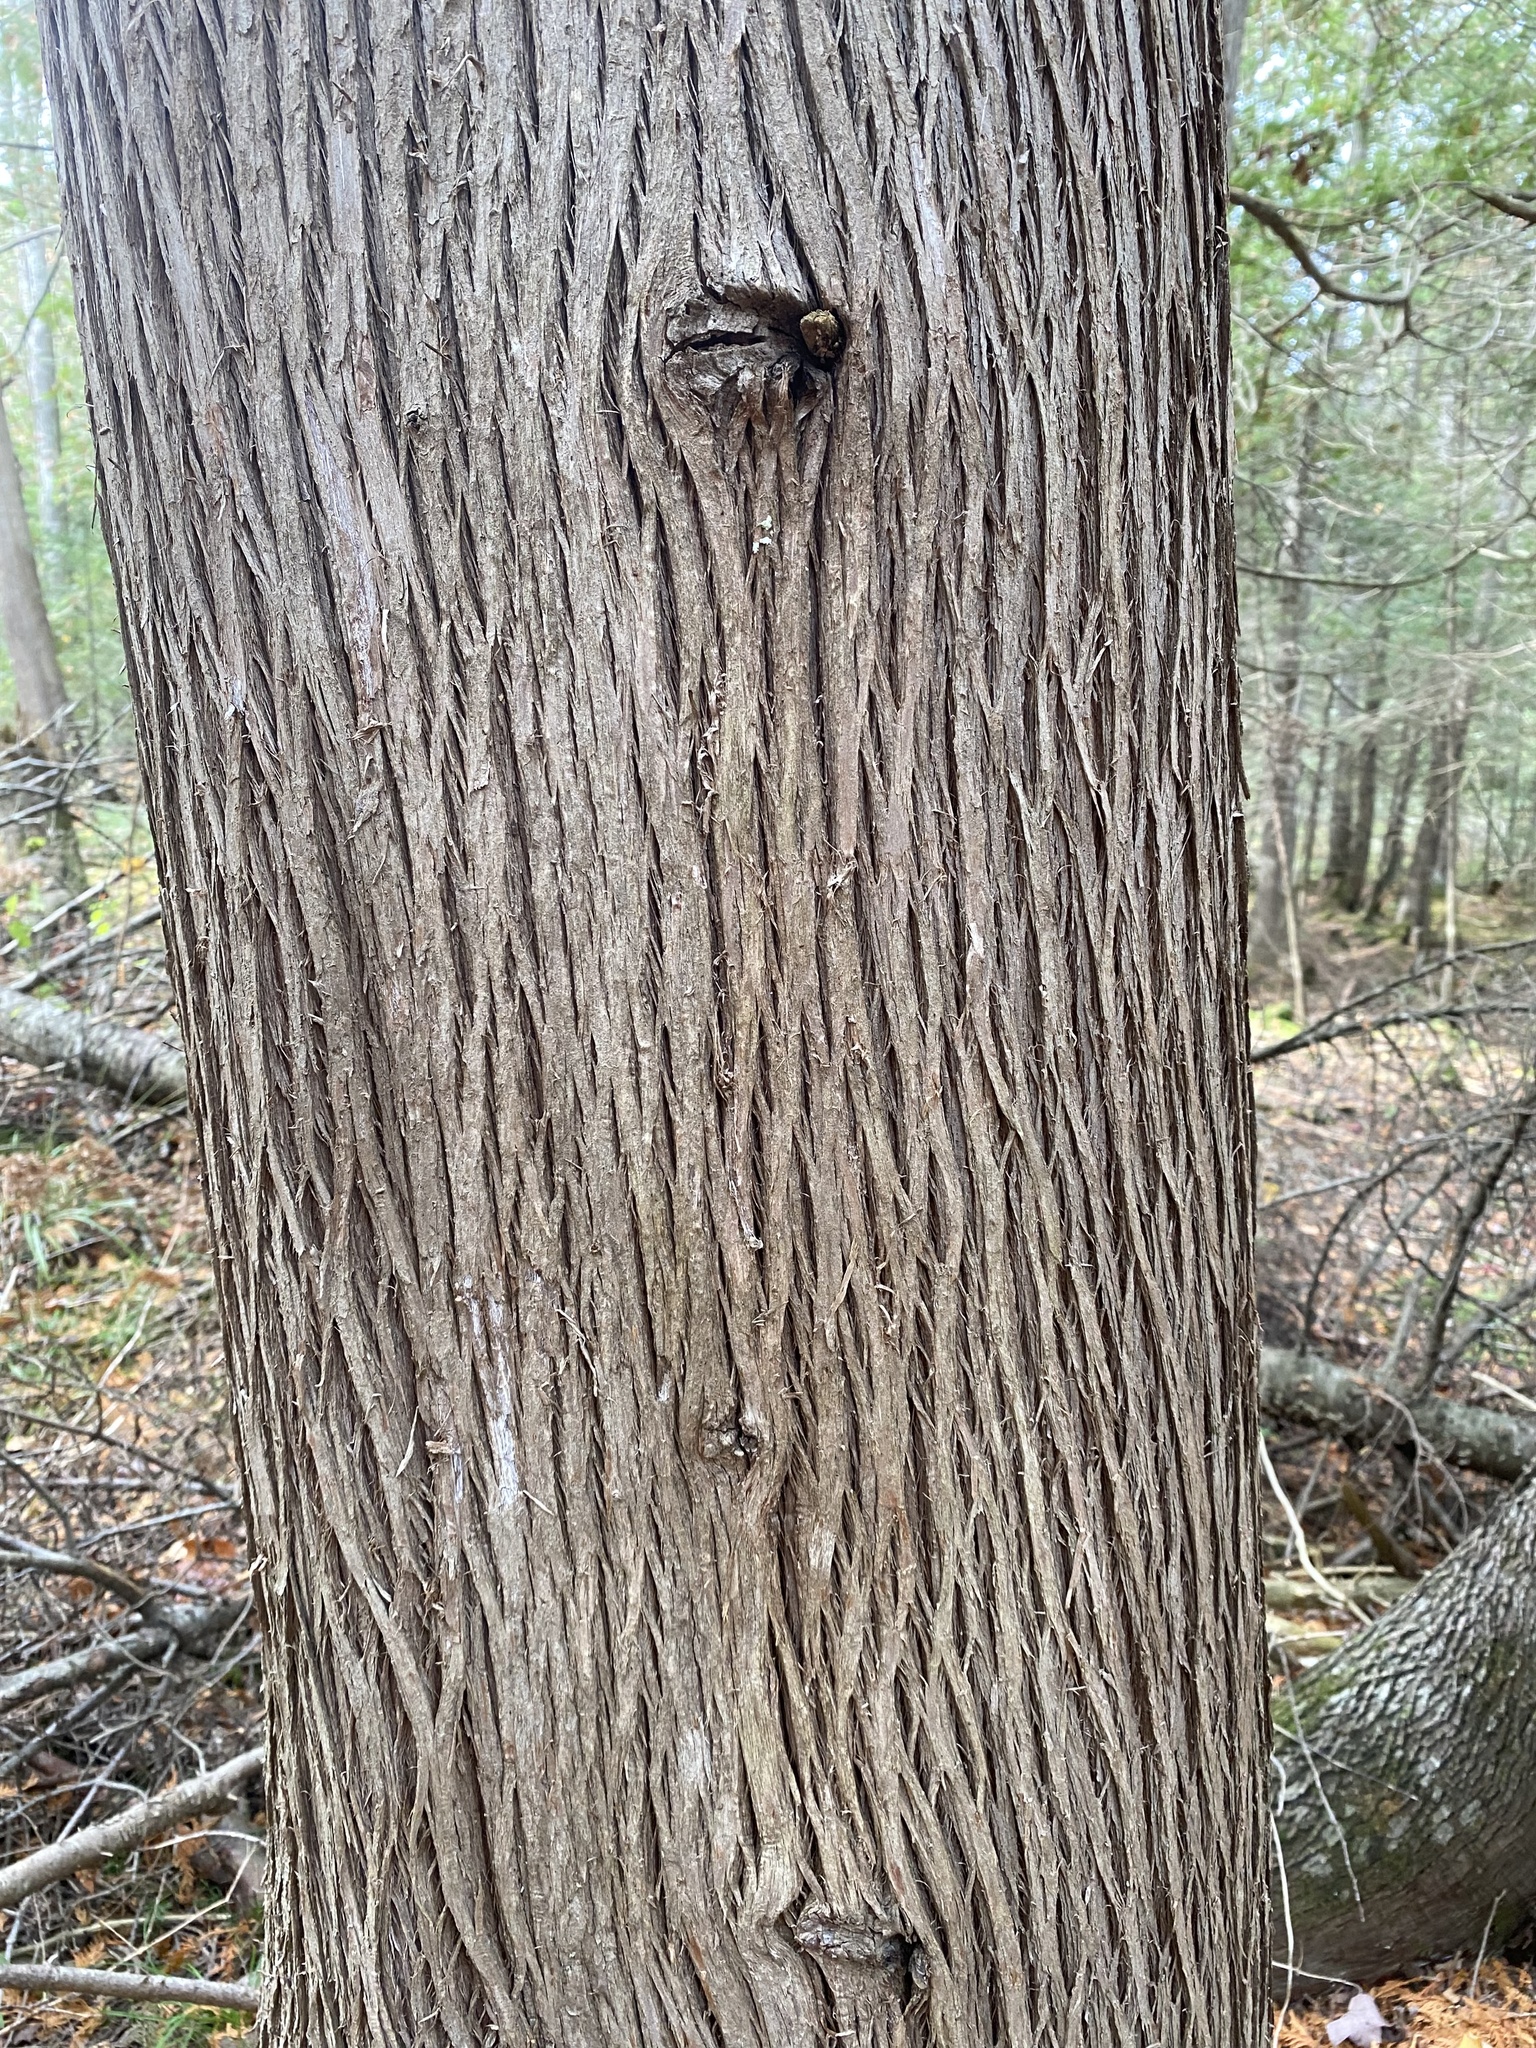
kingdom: Plantae
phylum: Tracheophyta
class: Pinopsida
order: Pinales
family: Cupressaceae
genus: Thuja
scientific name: Thuja occidentalis
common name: Northern white-cedar
